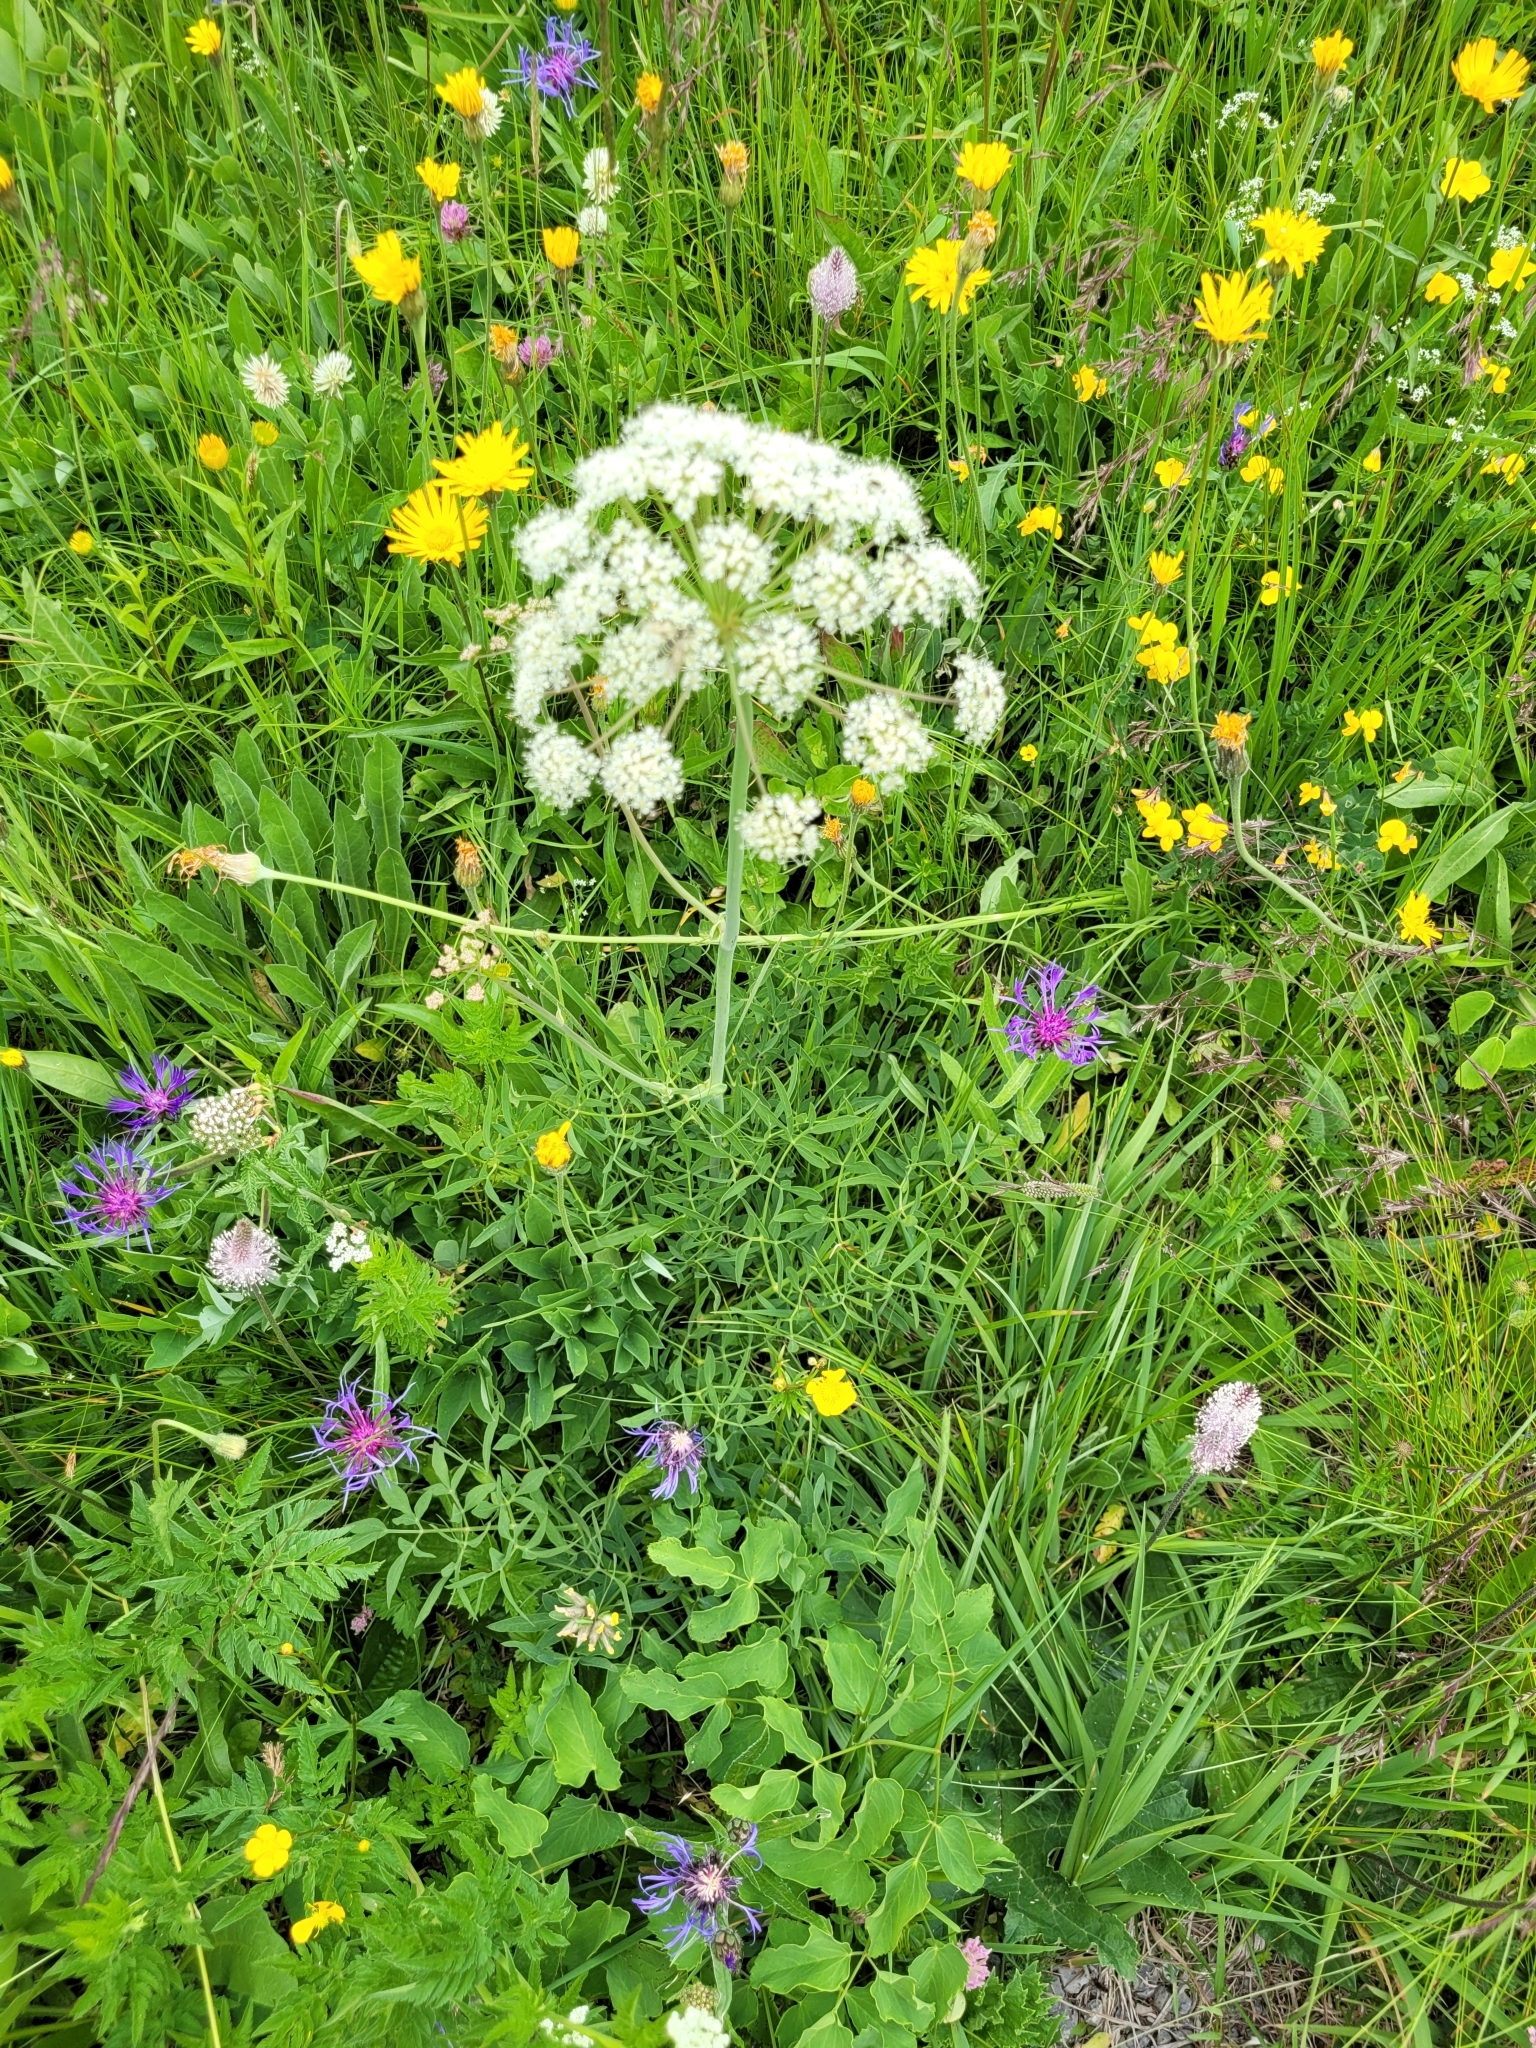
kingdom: Plantae
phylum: Tracheophyta
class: Magnoliopsida
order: Apiales
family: Apiaceae
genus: Siler
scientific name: Siler montanum
